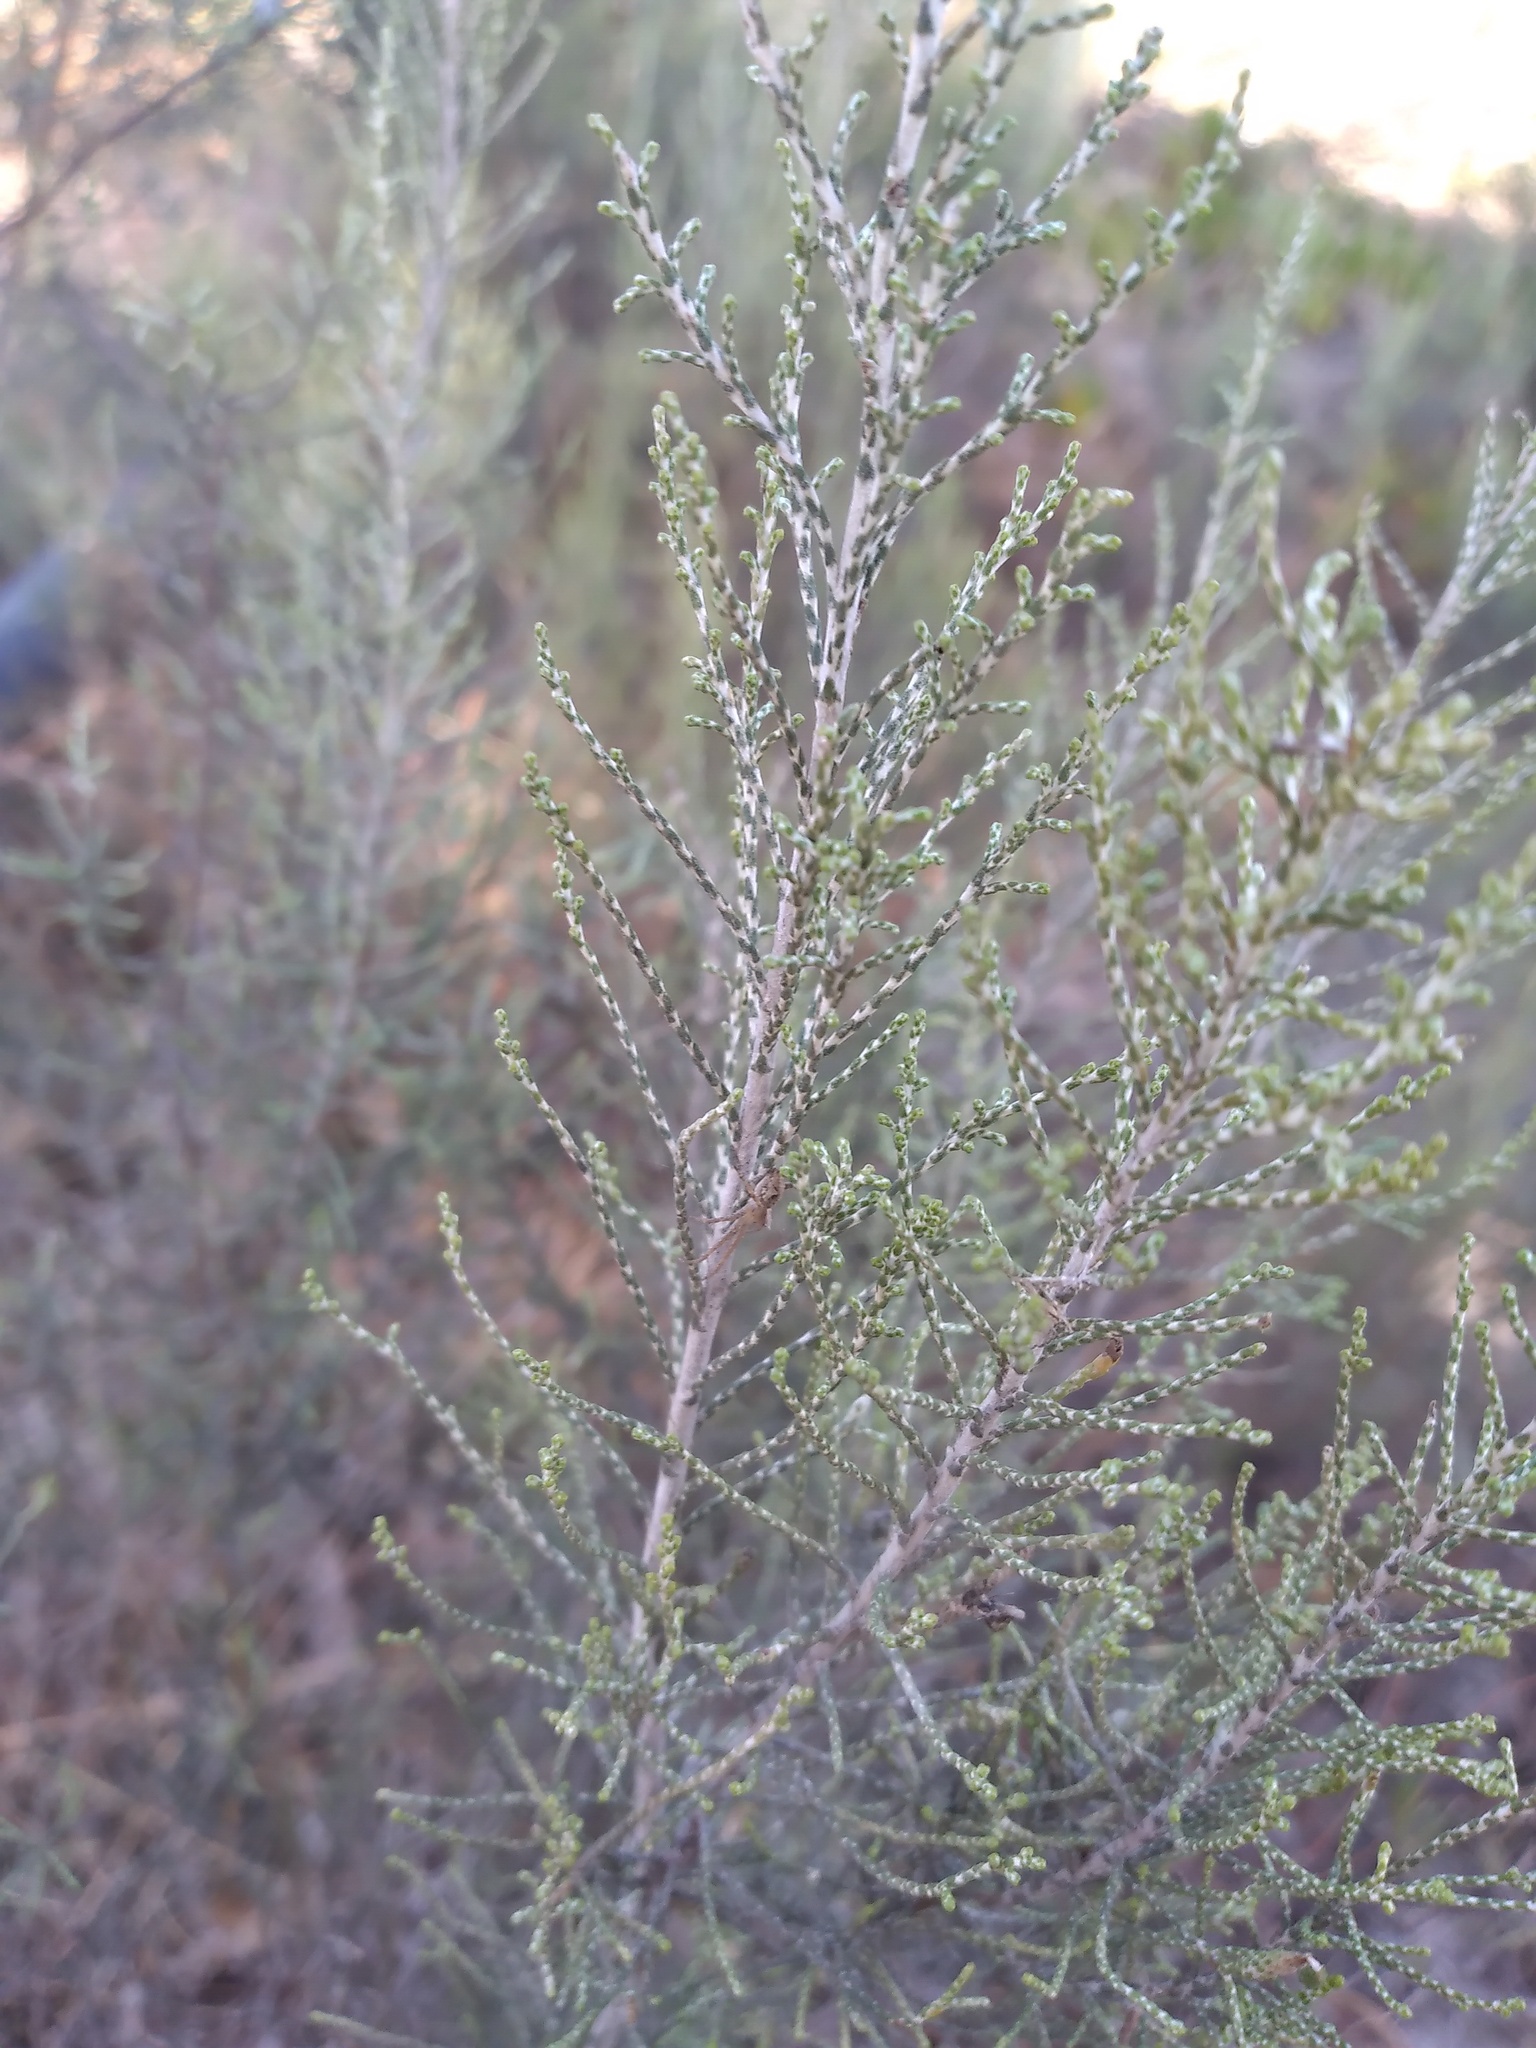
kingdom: Plantae
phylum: Tracheophyta
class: Magnoliopsida
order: Asterales
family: Asteraceae
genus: Dicerothamnus
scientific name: Dicerothamnus rhinocerotis
